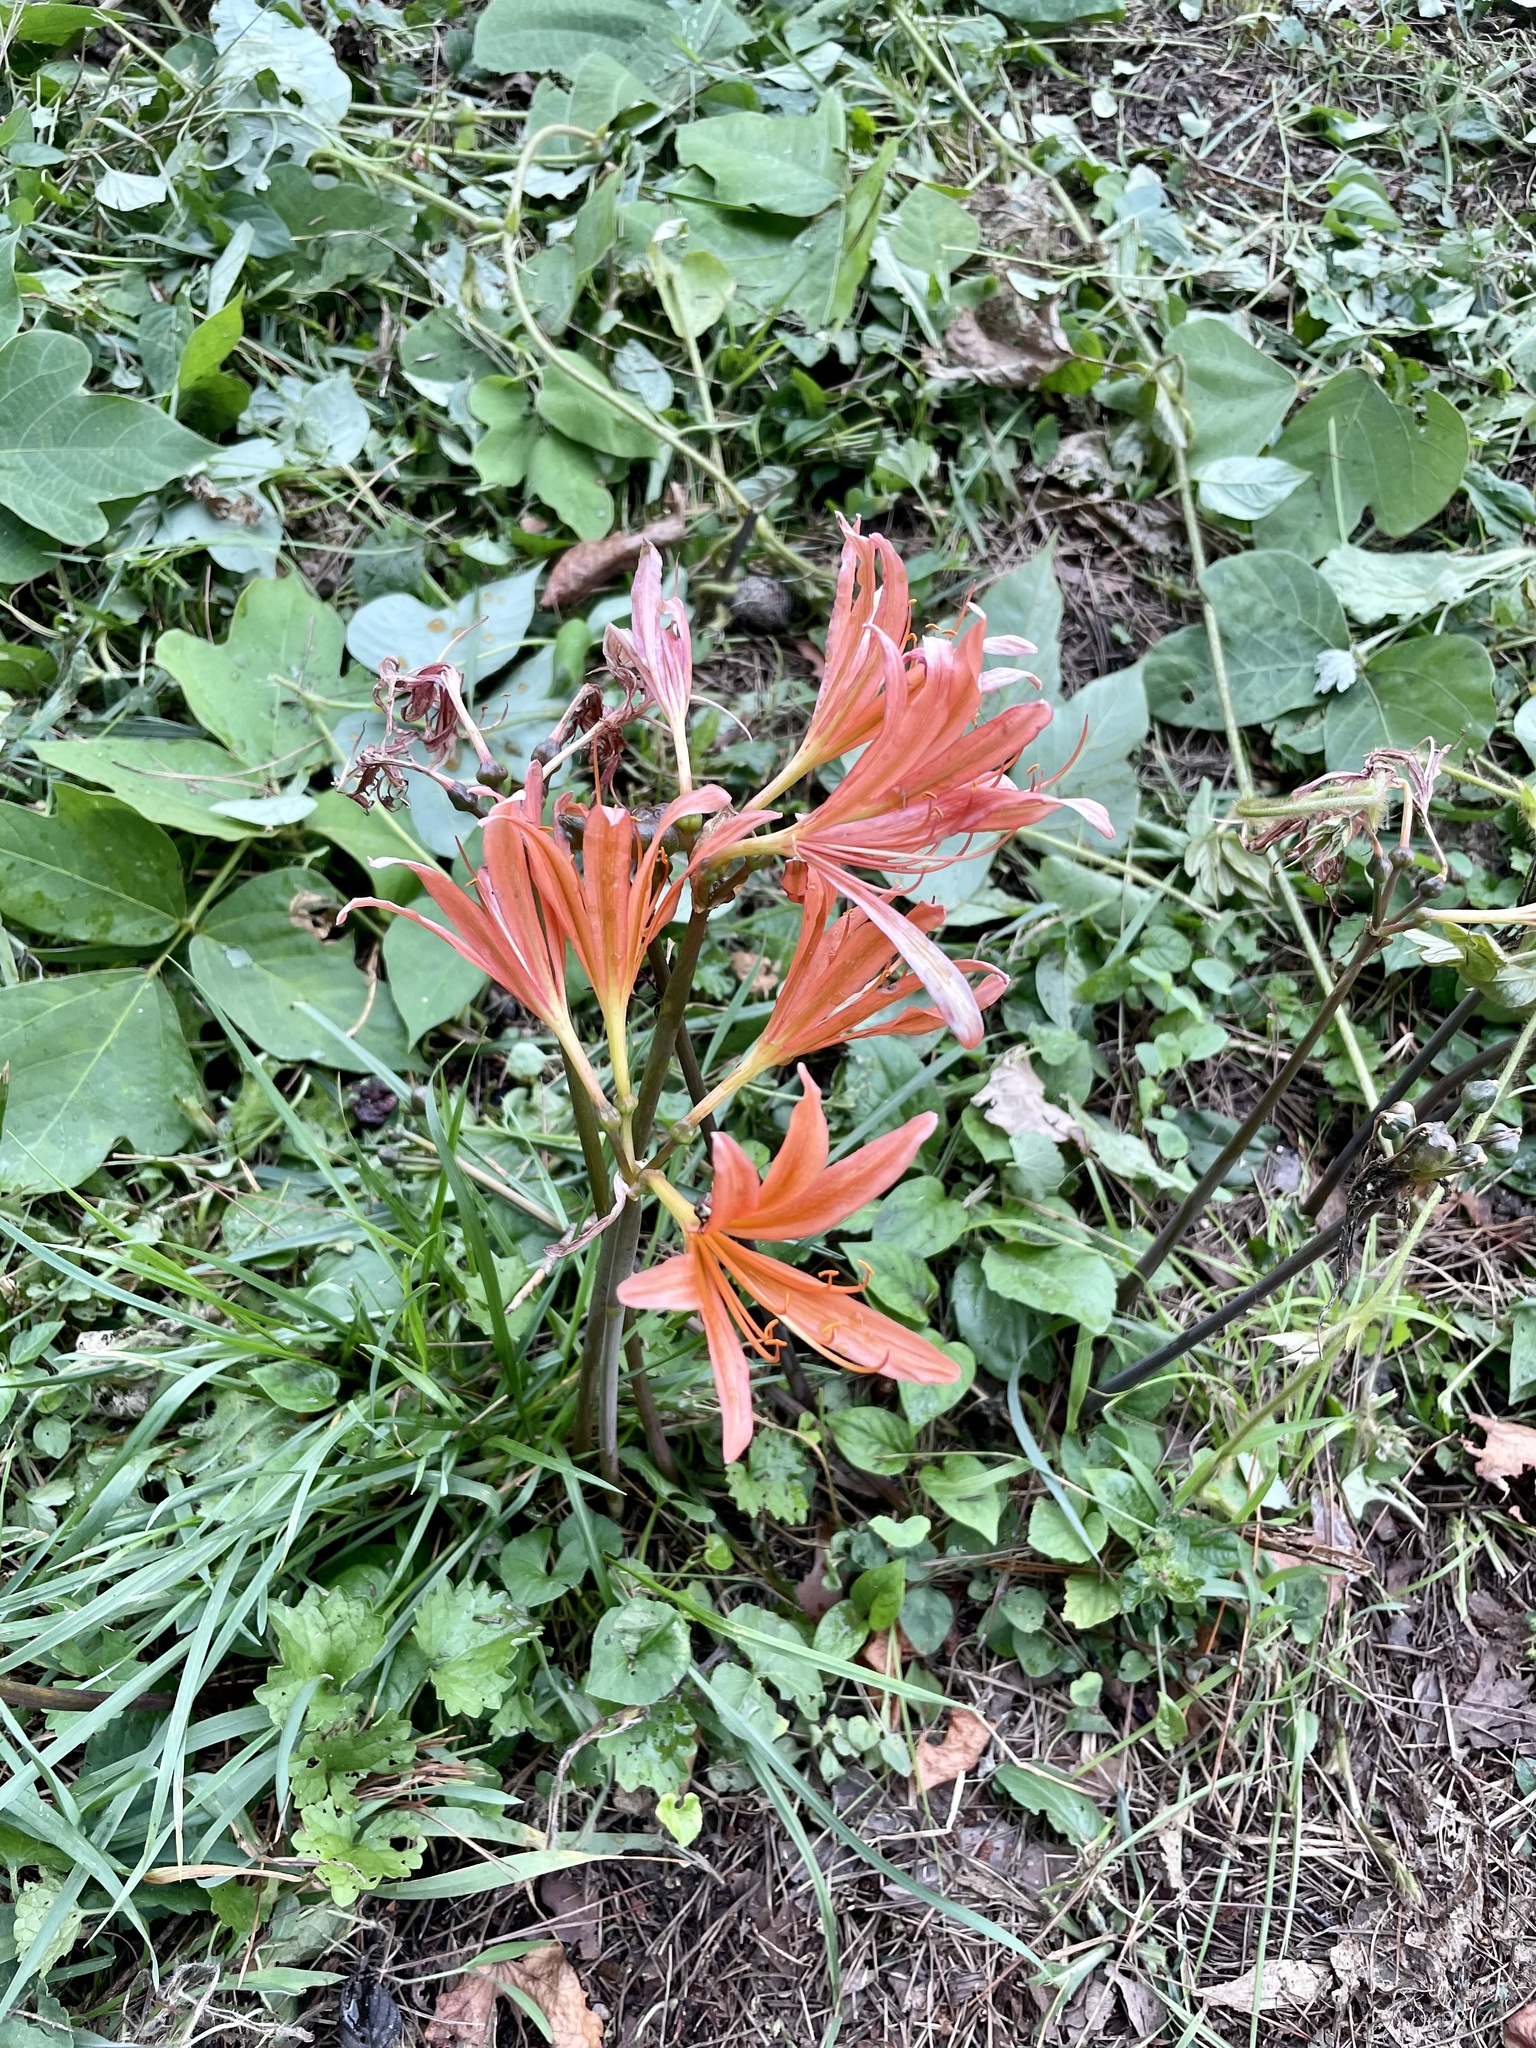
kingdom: Plantae
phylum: Tracheophyta
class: Liliopsida
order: Asparagales
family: Amaryllidaceae
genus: Lycoris
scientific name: Lycoris sanguinea
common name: Spider-lily
